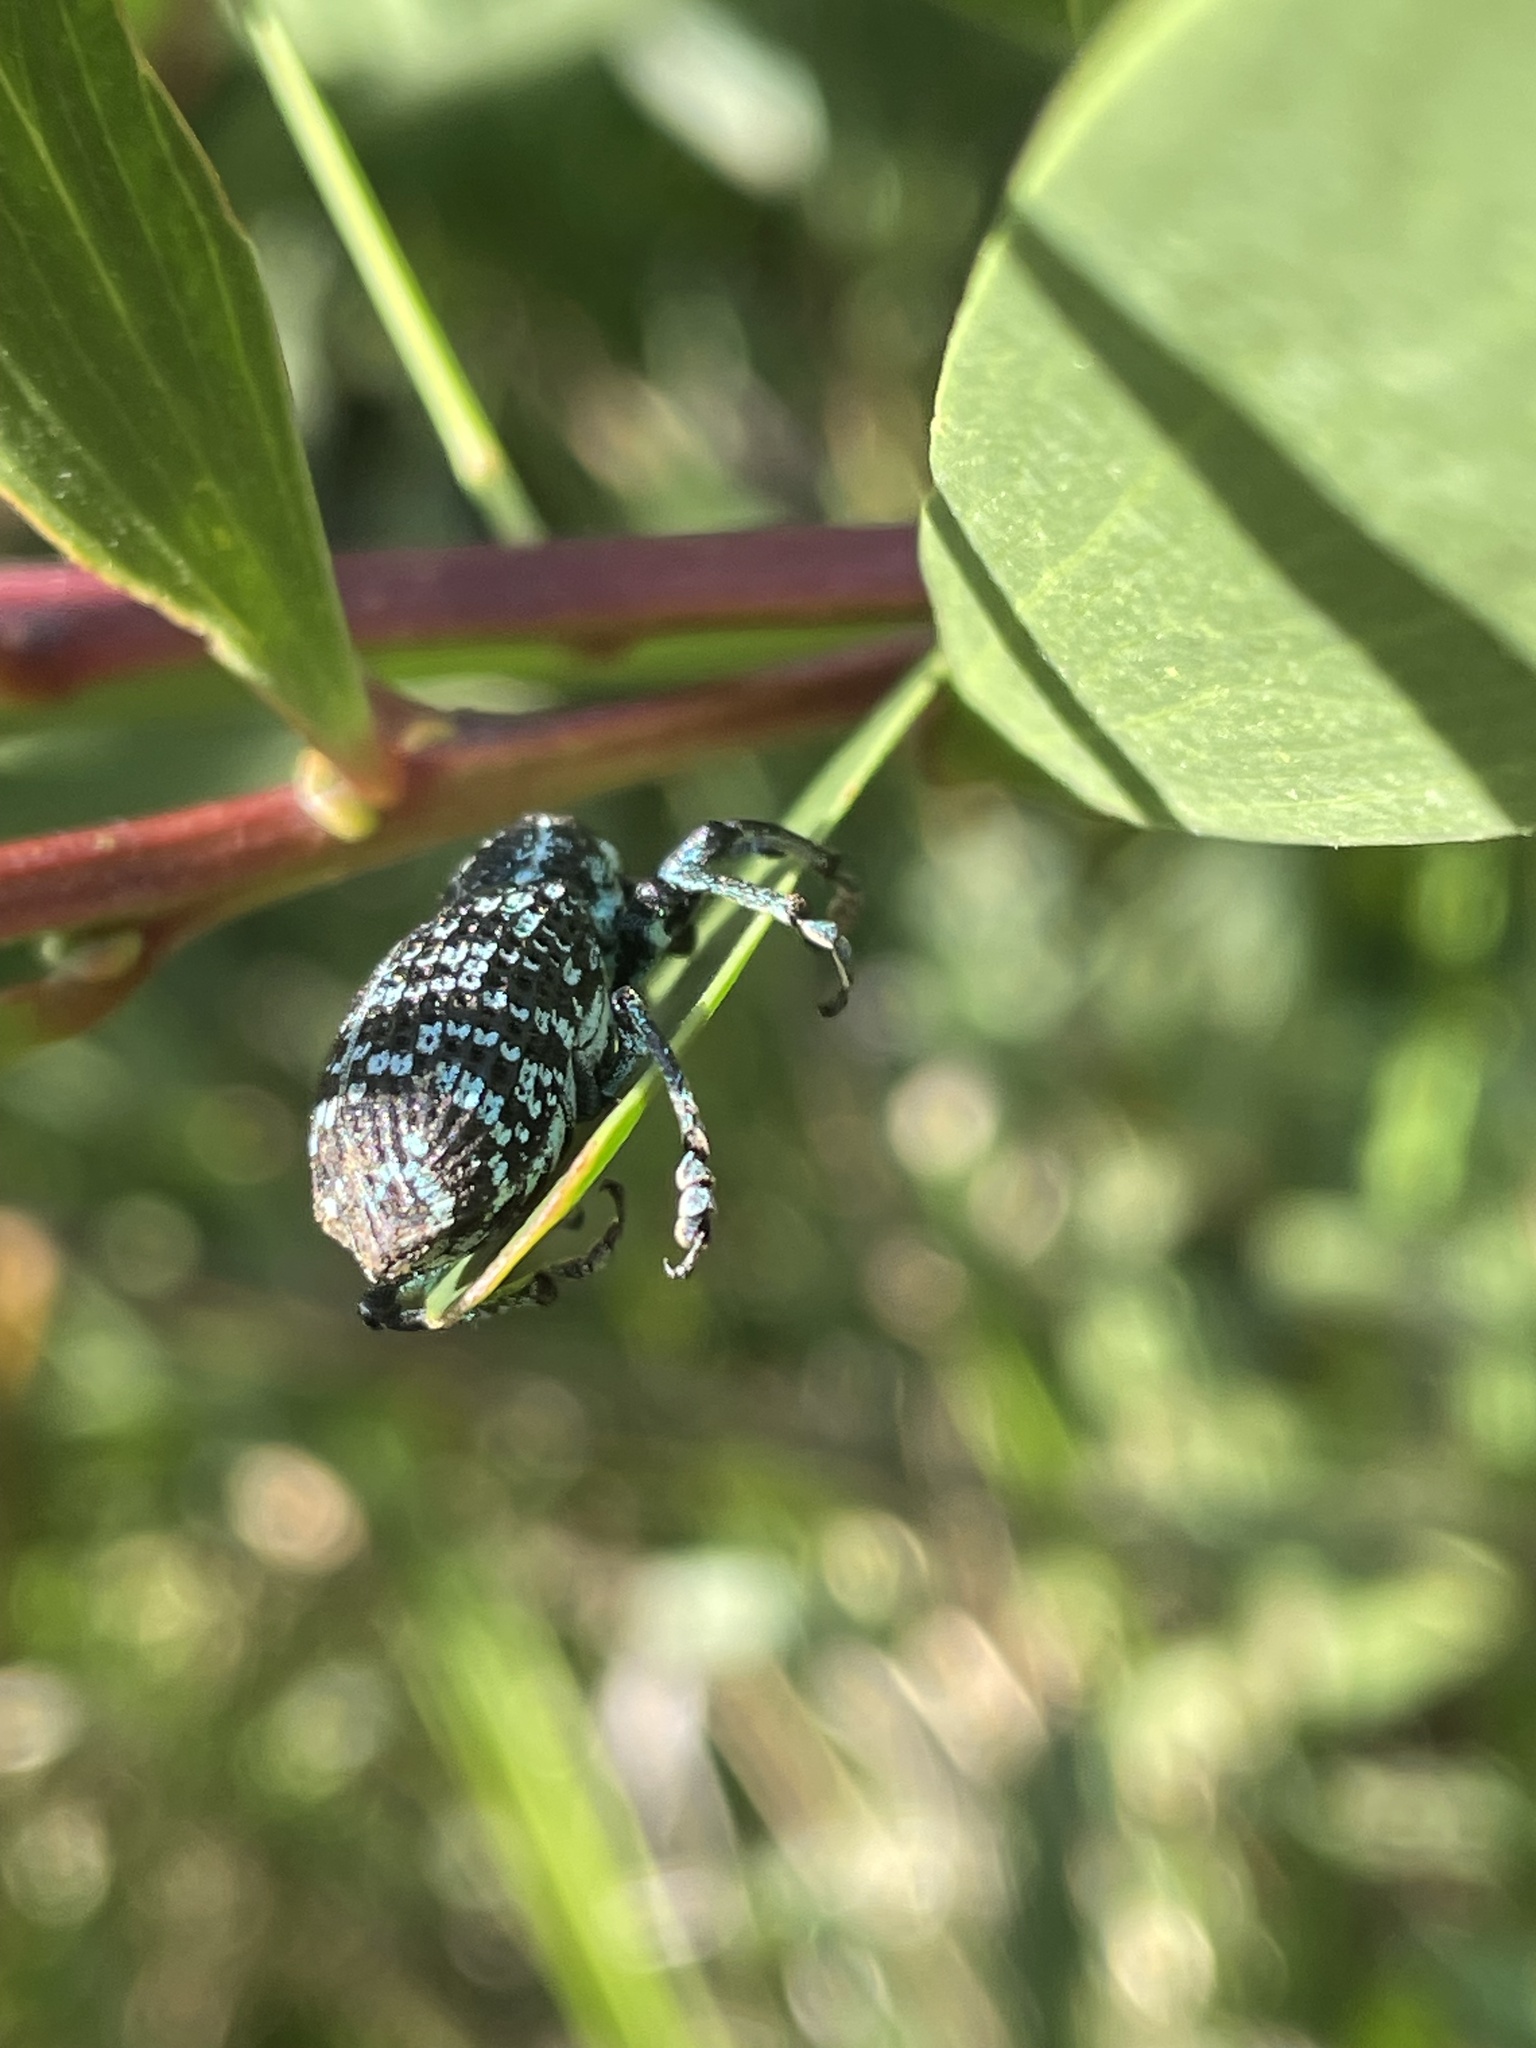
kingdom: Animalia
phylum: Arthropoda
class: Insecta
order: Coleoptera
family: Curculionidae
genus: Chrysolopus
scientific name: Chrysolopus spectabilis
